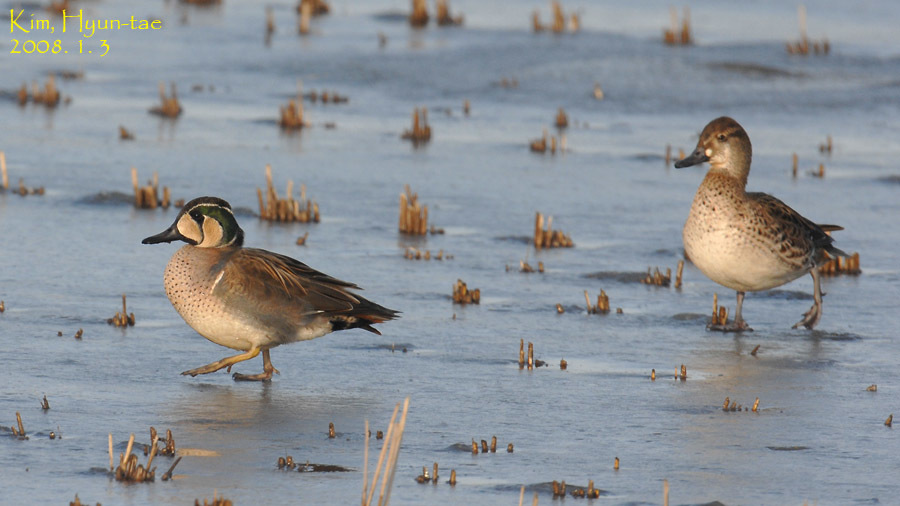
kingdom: Animalia
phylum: Chordata
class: Aves
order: Anseriformes
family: Anatidae
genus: Sibirionetta
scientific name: Sibirionetta formosa
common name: Baikal teal
